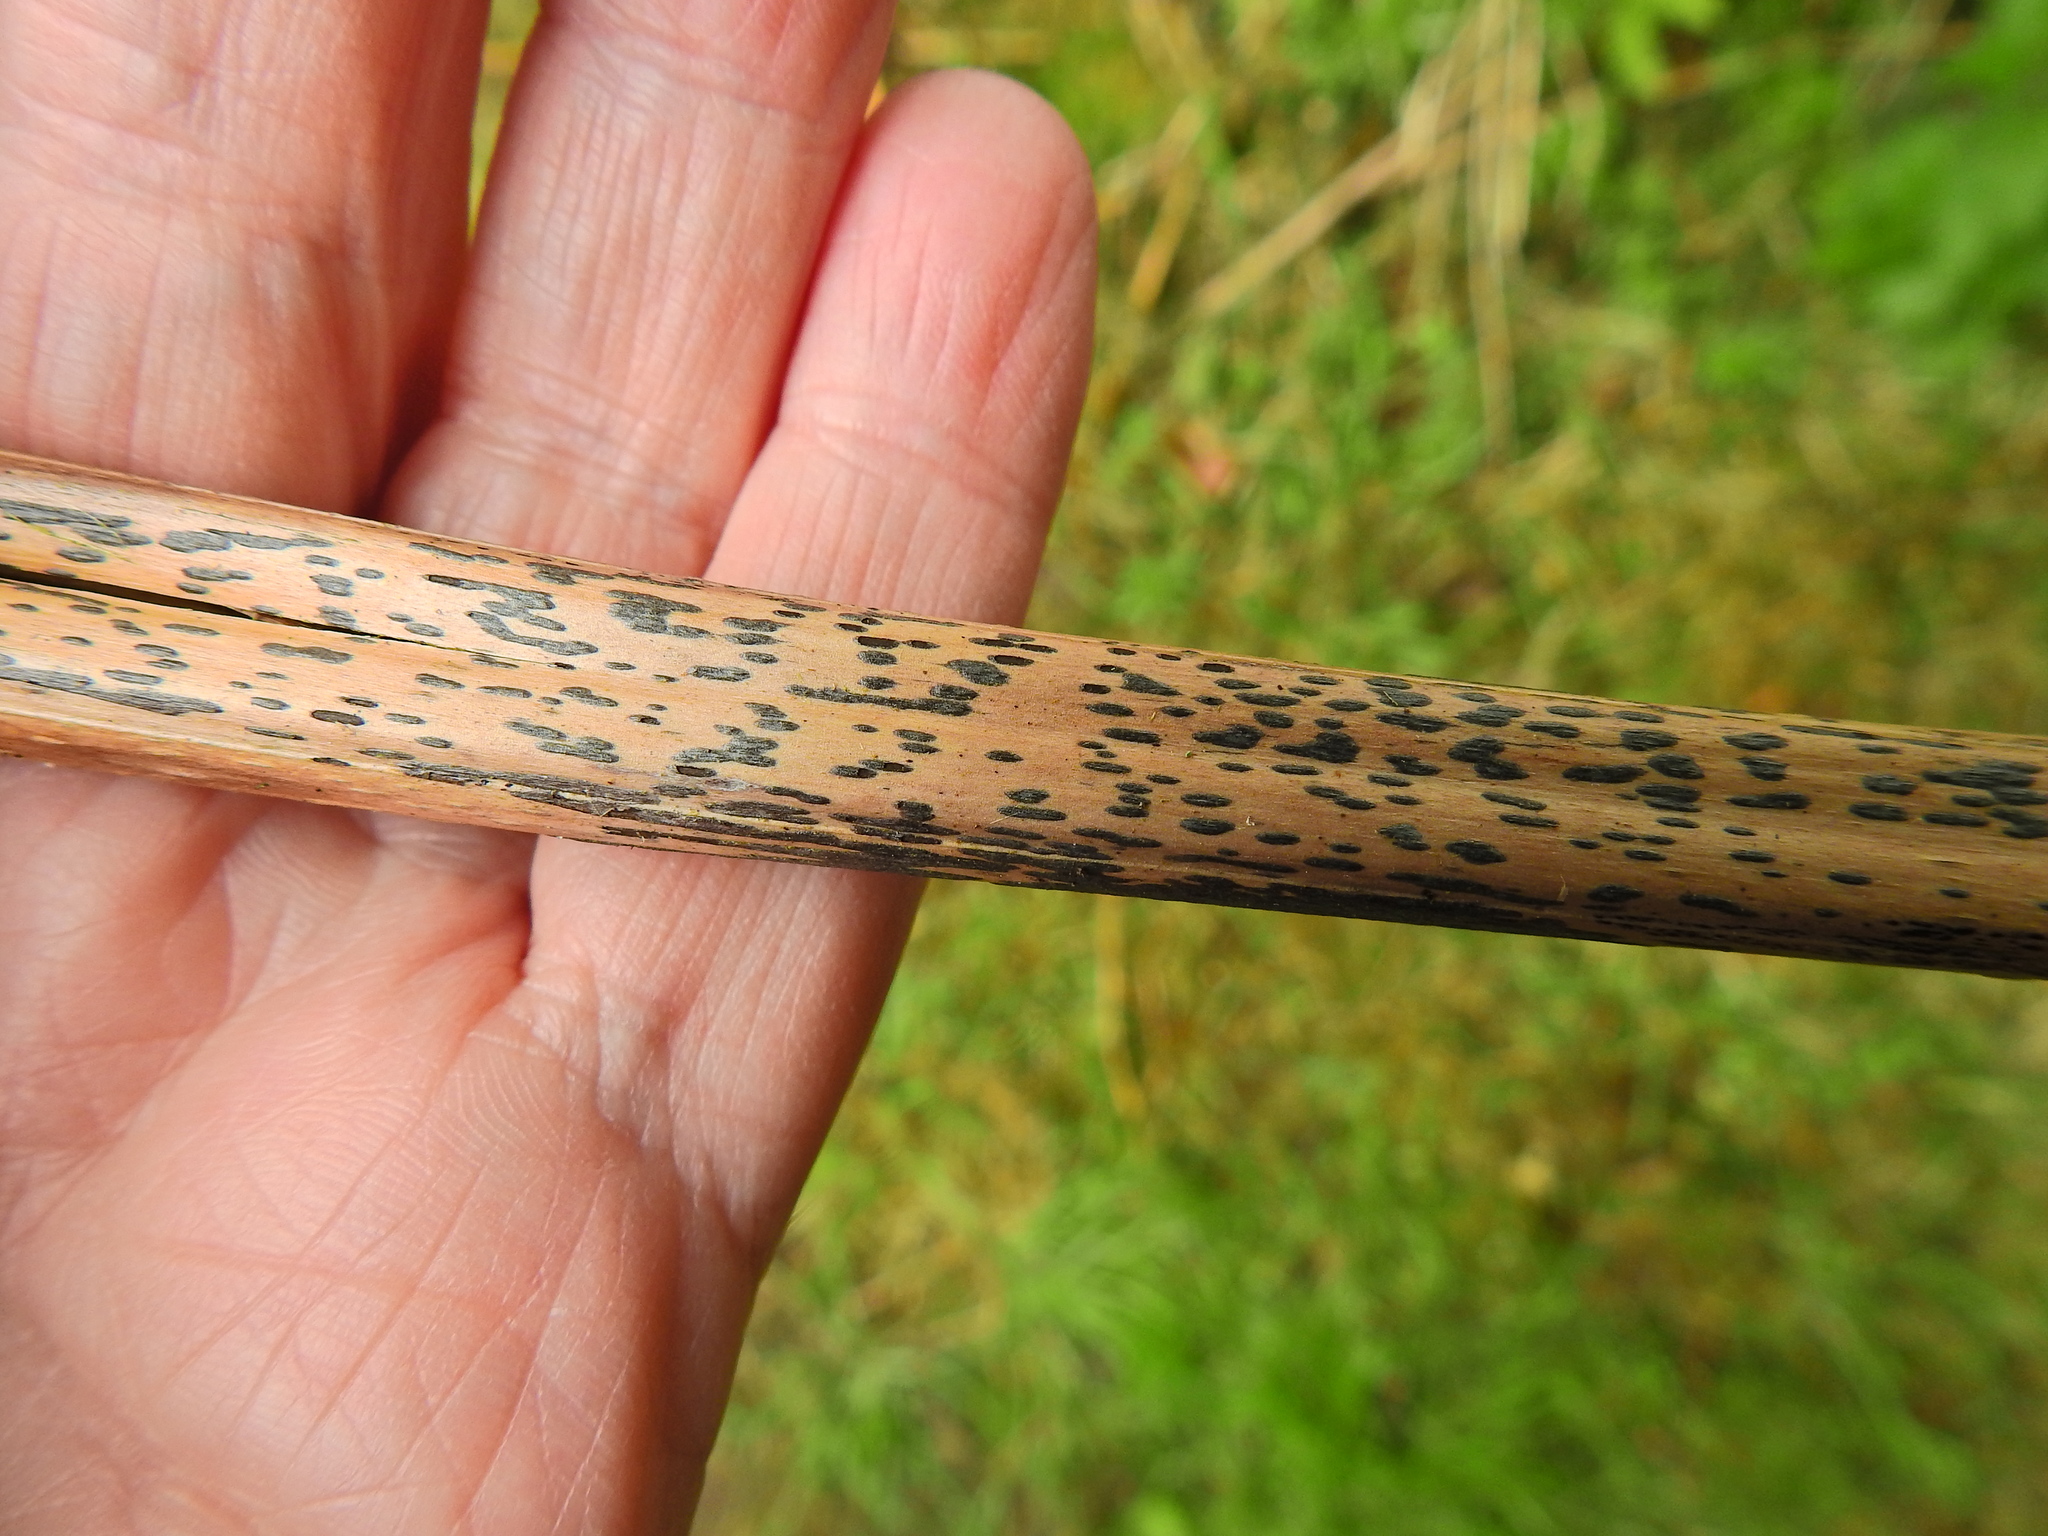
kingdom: Fungi
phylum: Ascomycota
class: Dothideomycetes
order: Pleosporales
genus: Rhopographus
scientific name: Rhopographus filicinus
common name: Bracken map
